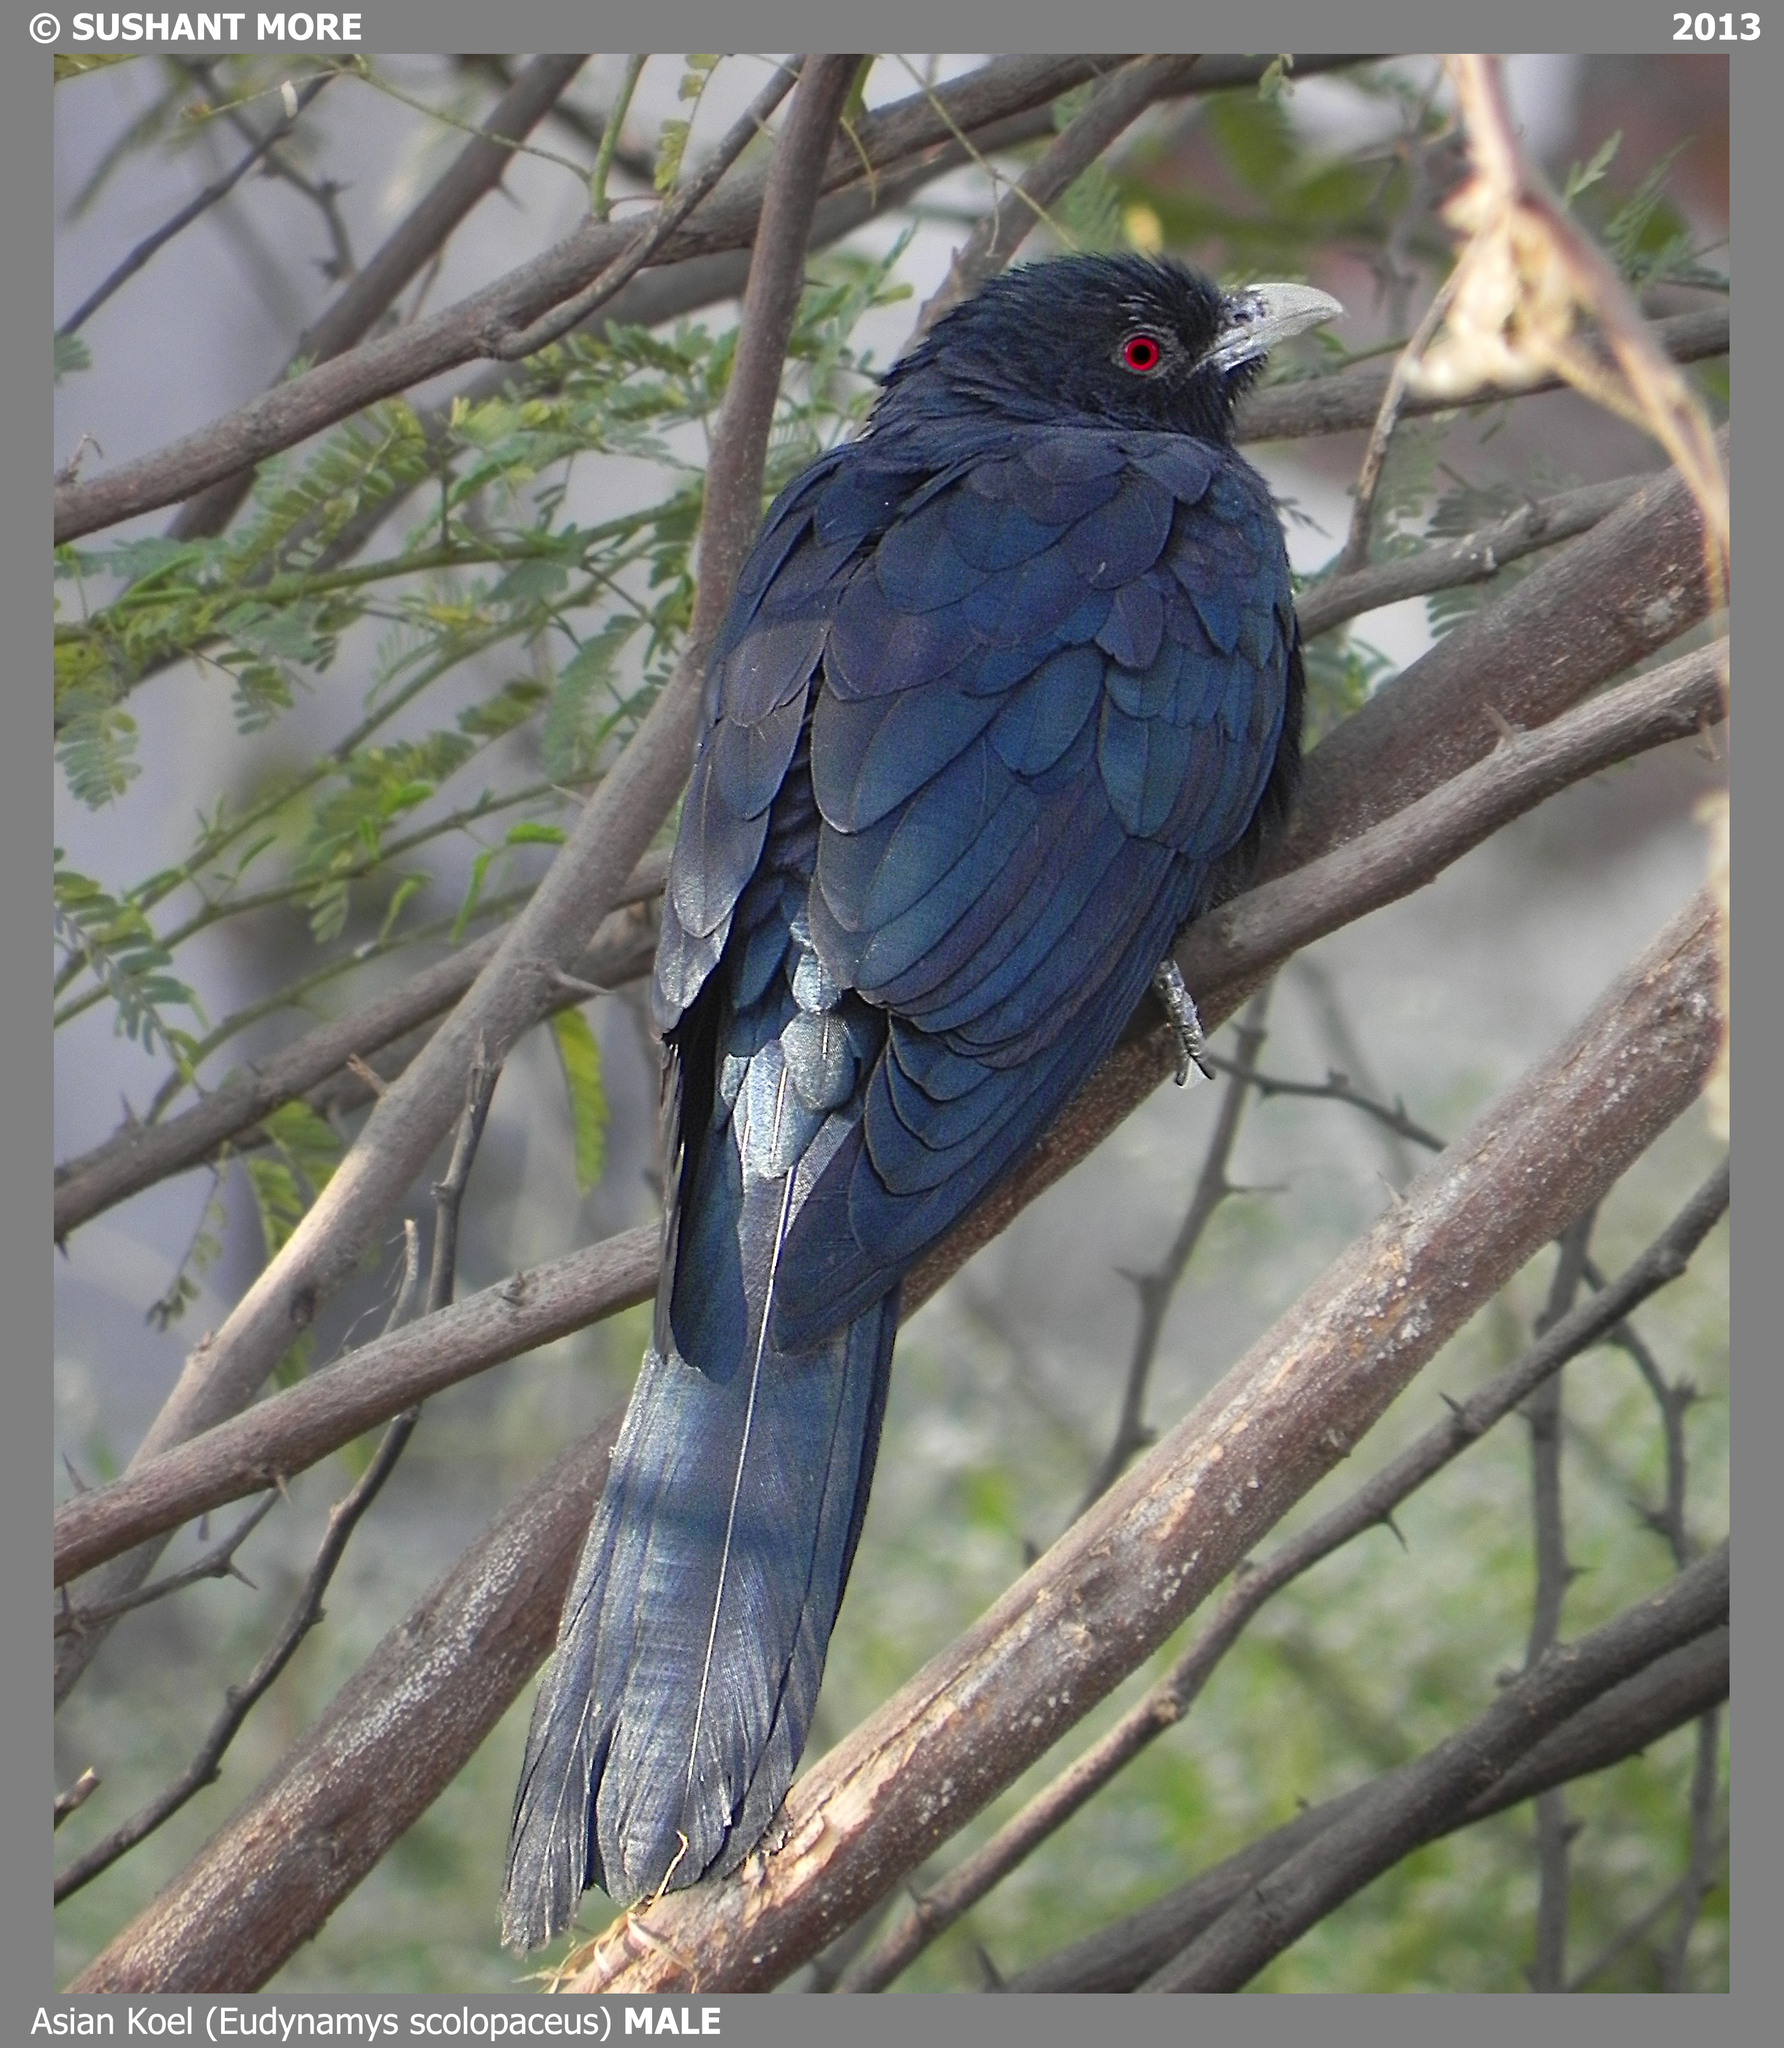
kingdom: Animalia
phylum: Chordata
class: Aves
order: Cuculiformes
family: Cuculidae
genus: Eudynamys
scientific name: Eudynamys scolopaceus
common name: Asian koel
